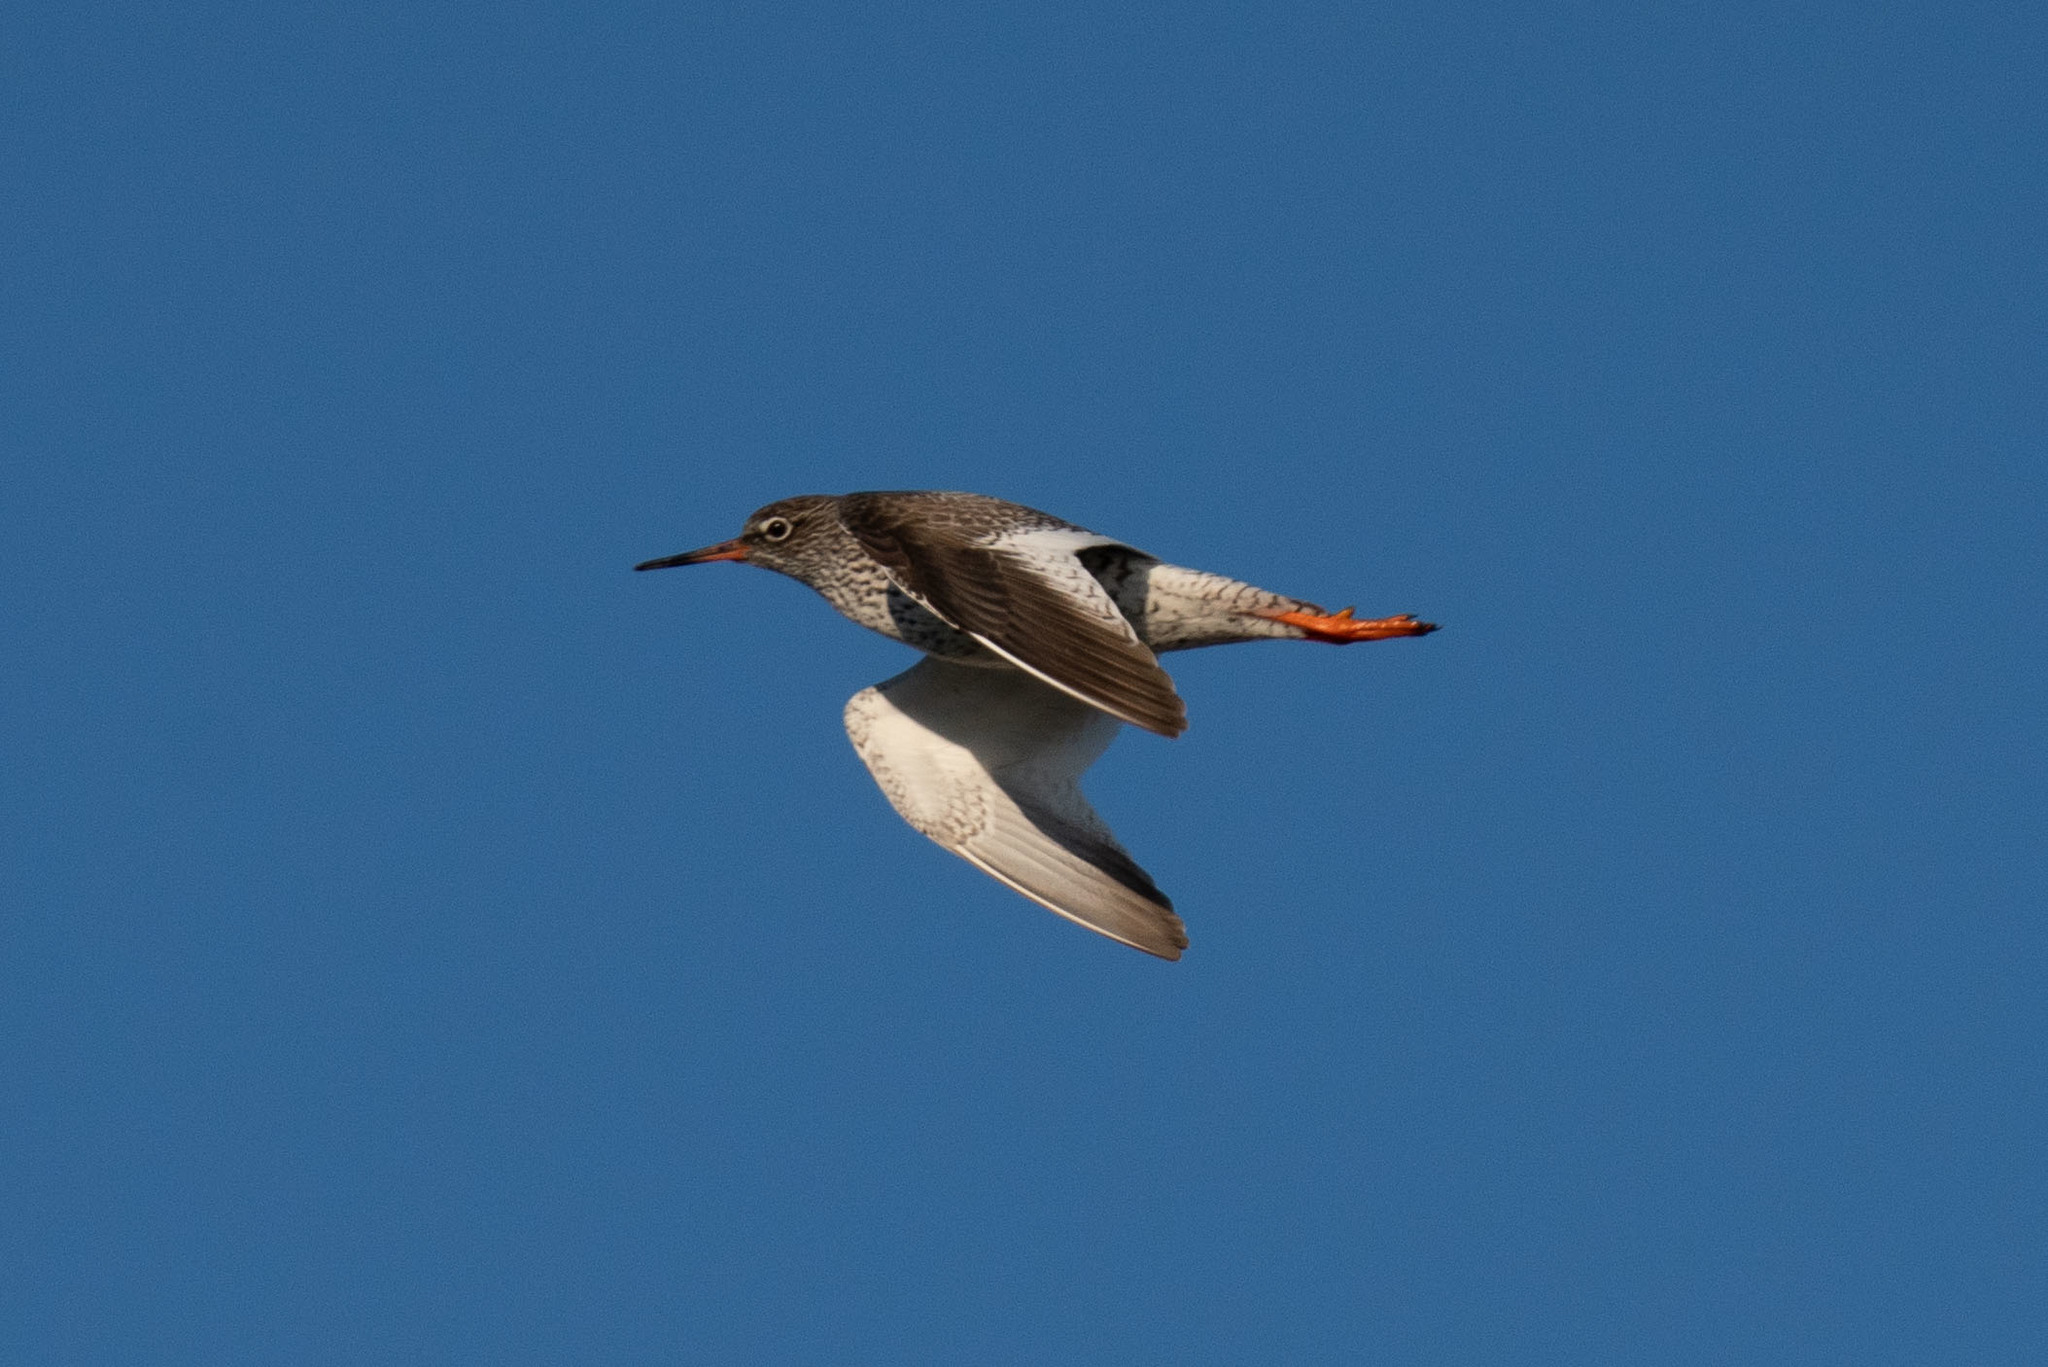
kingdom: Animalia
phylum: Chordata
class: Aves
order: Charadriiformes
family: Scolopacidae
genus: Tringa
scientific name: Tringa totanus
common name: Common redshank
